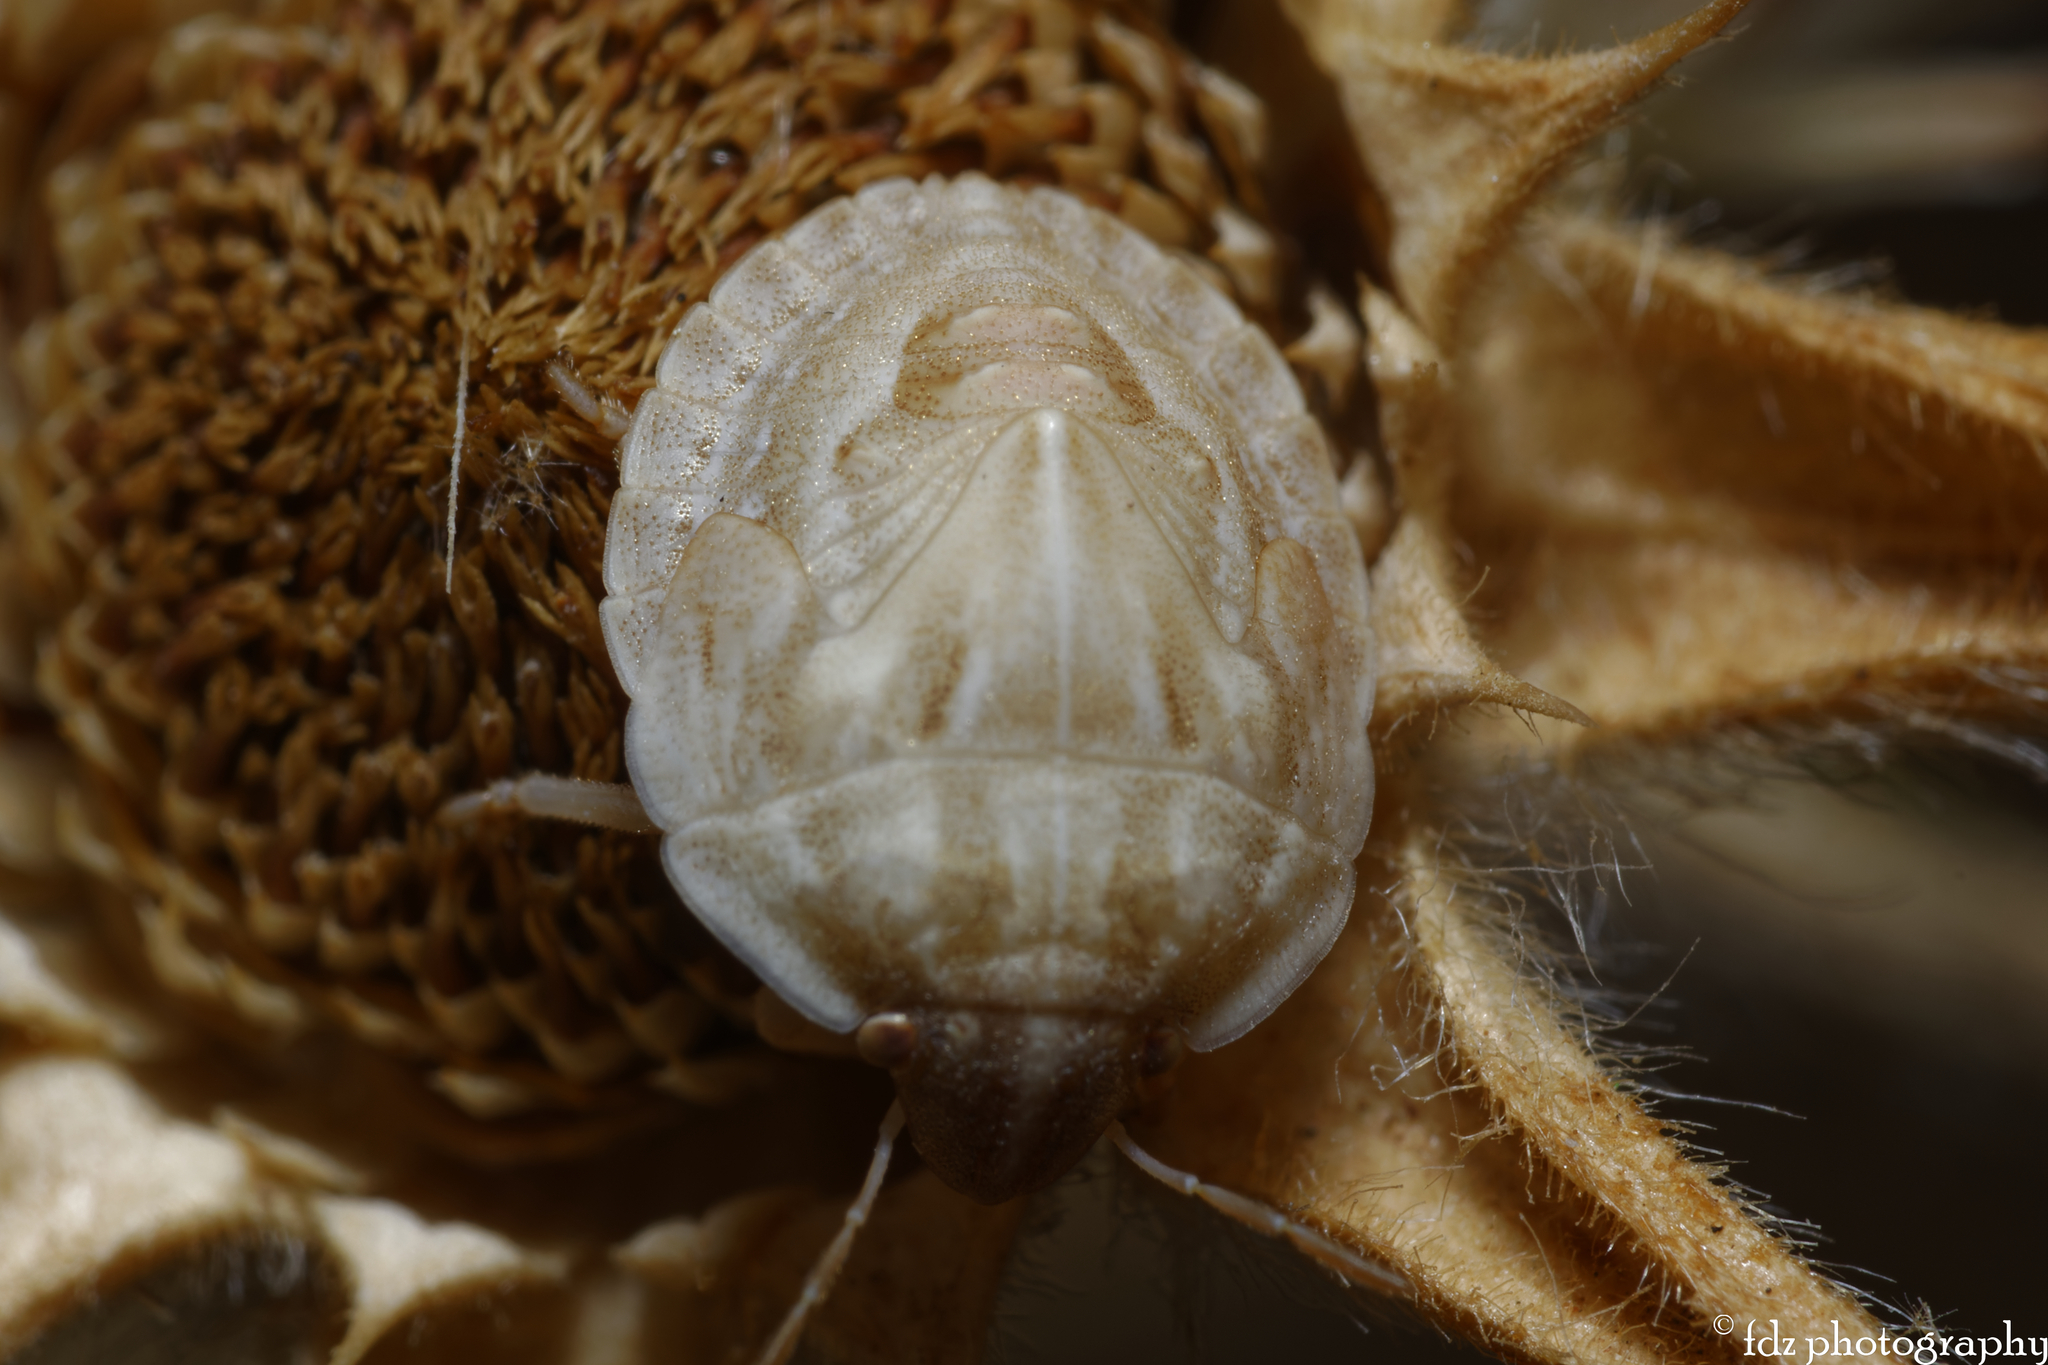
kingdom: Animalia
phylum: Arthropoda
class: Insecta
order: Hemiptera
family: Scutelleridae
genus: Odontotarsus
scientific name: Odontotarsus intermedius
